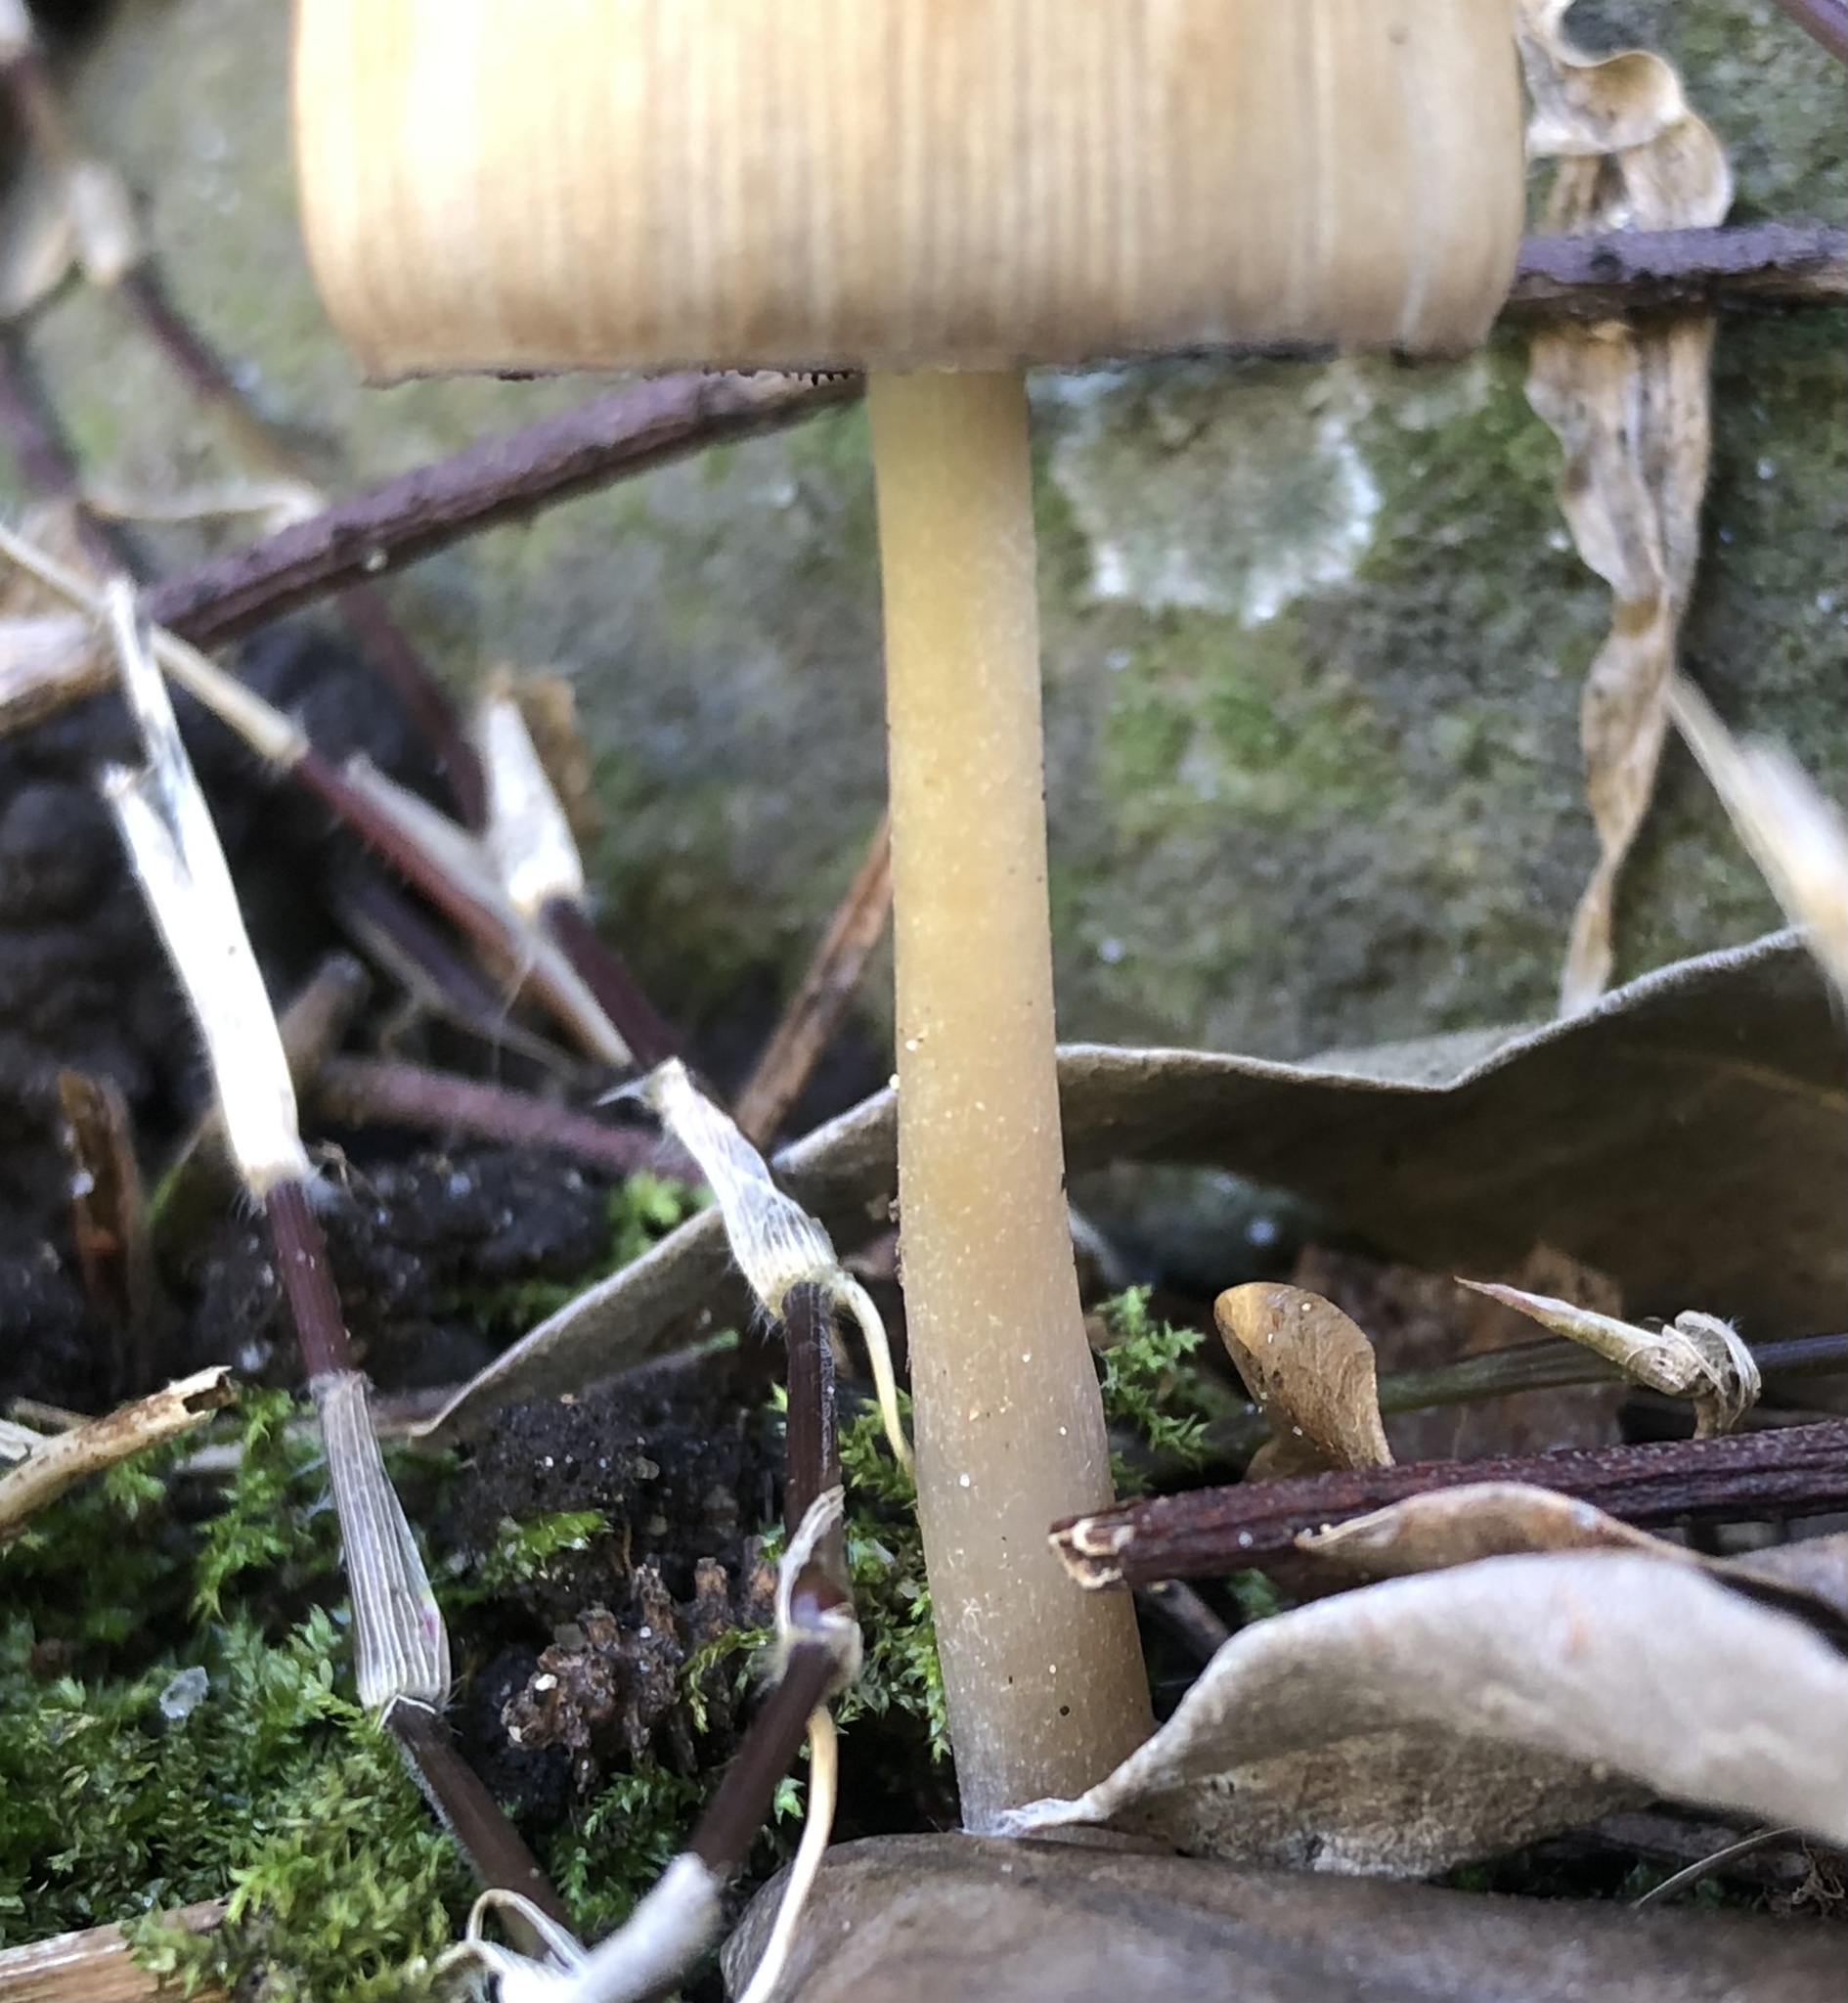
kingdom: Fungi
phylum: Basidiomycota
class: Agaricomycetes
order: Agaricales
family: Psathyrellaceae
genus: Coprinellus
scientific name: Coprinellus micaceus
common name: Glistening ink-cap
